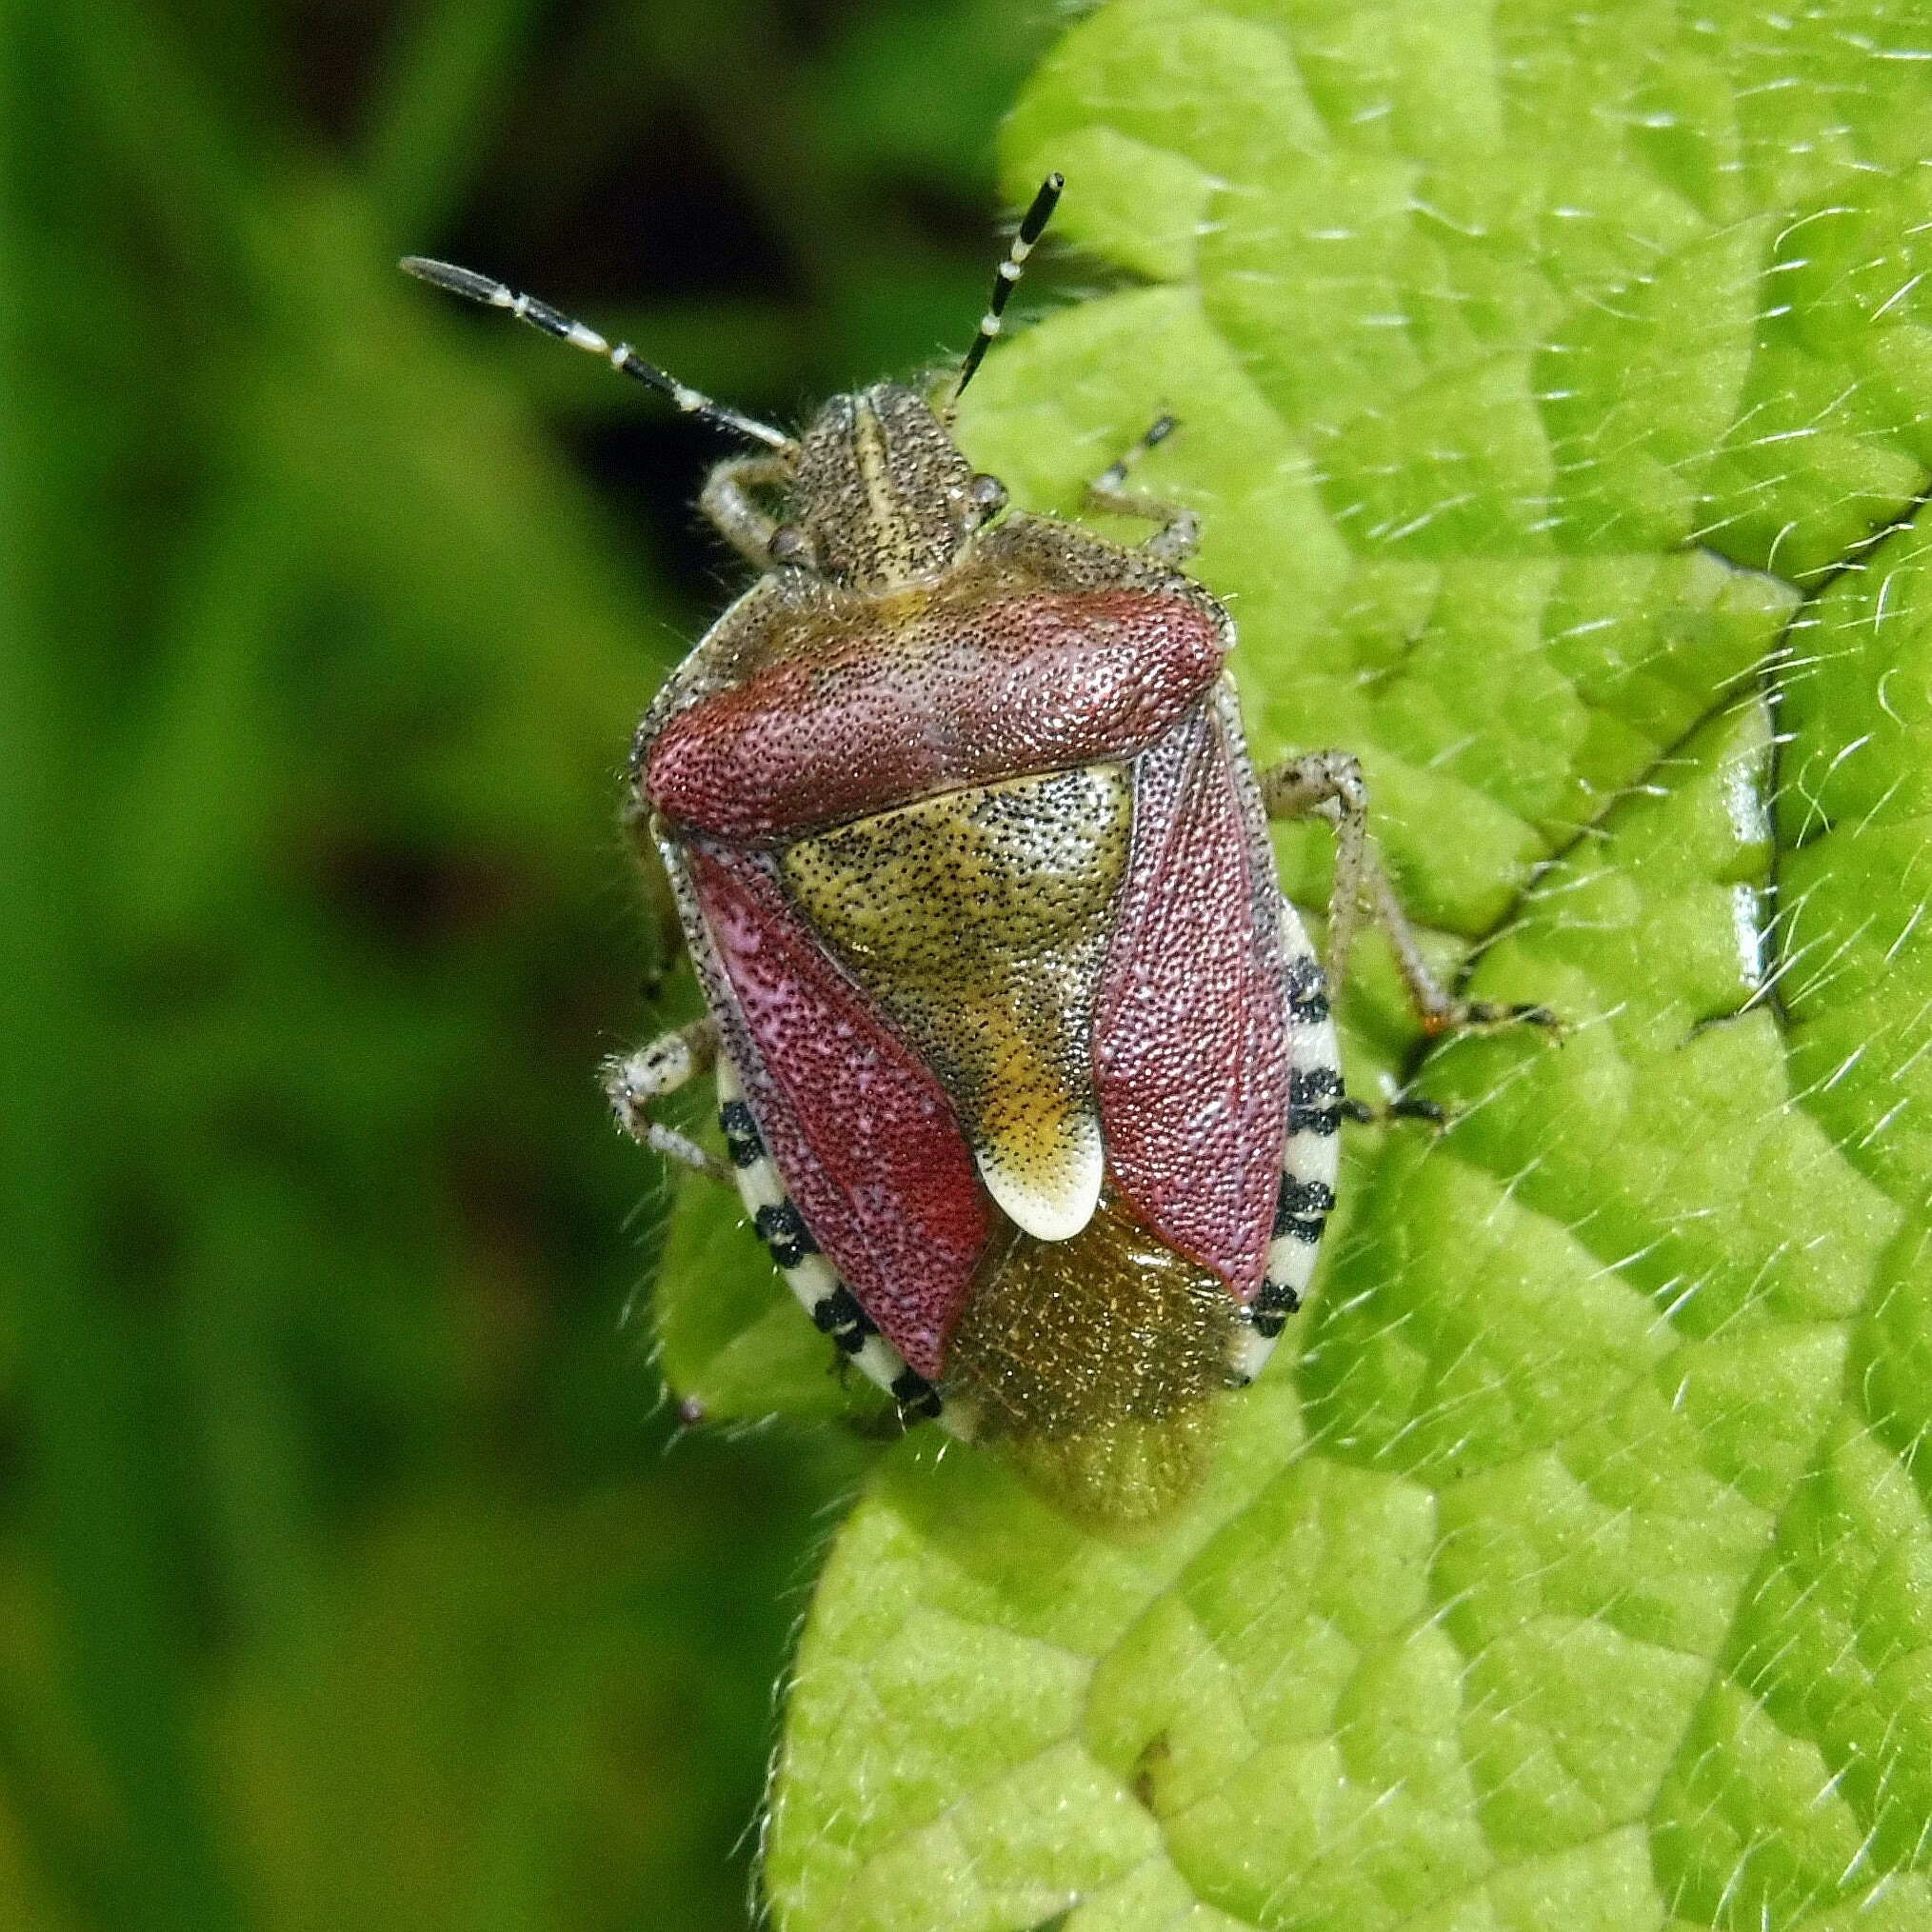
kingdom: Animalia
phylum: Arthropoda
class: Insecta
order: Hemiptera
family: Pentatomidae
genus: Dolycoris
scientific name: Dolycoris baccarum
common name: Sloe bug
